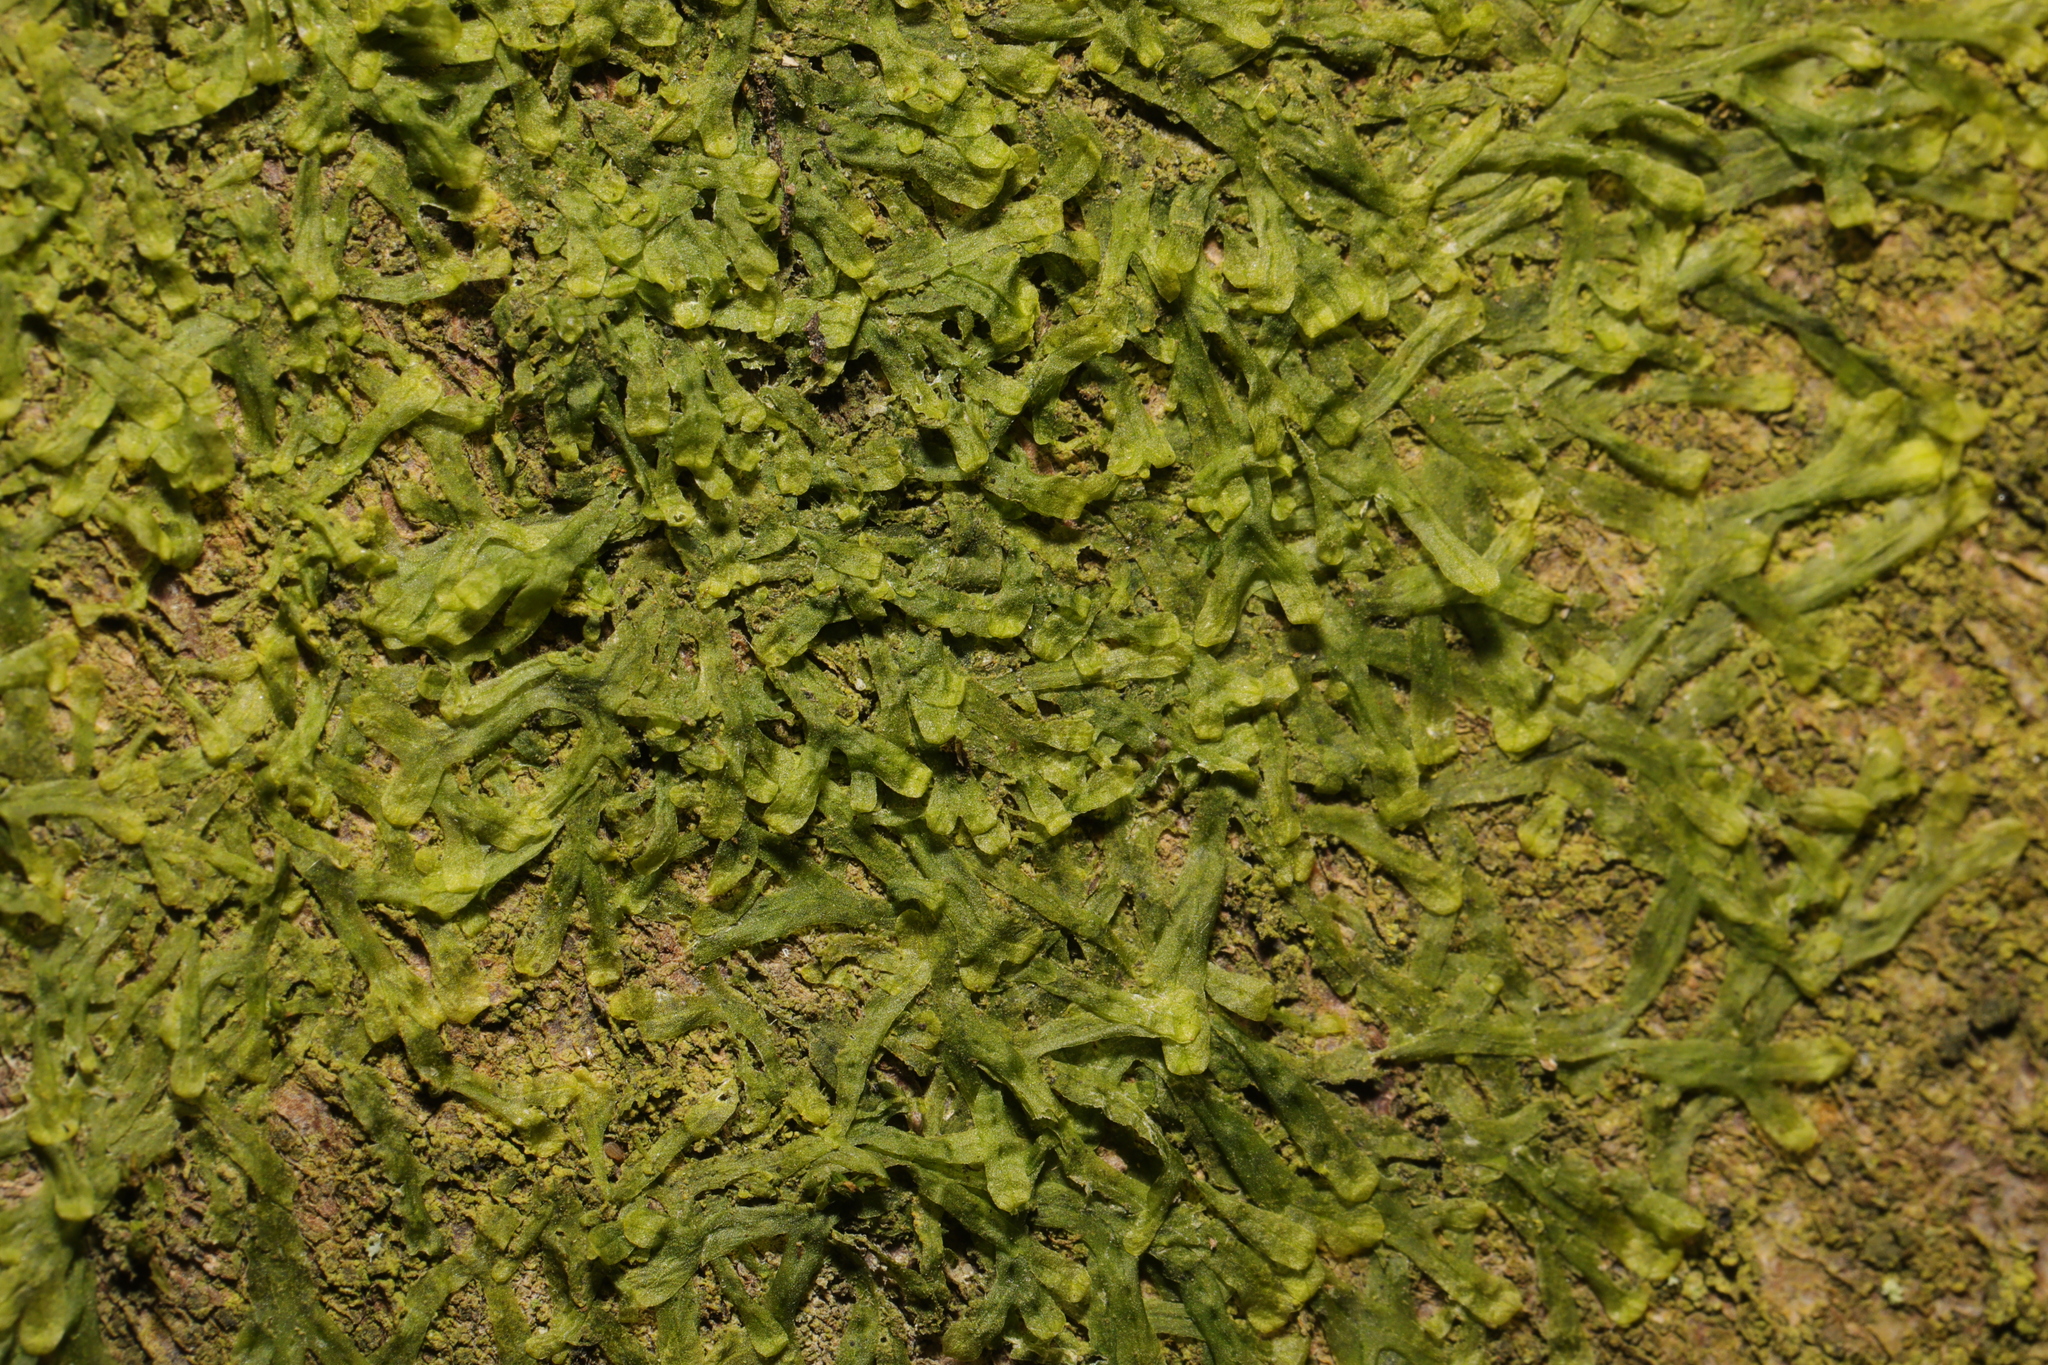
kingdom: Plantae
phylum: Marchantiophyta
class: Jungermanniopsida
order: Metzgeriales
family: Metzgeriaceae
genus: Metzgeria
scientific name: Metzgeria furcata
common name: Forked veilwort
